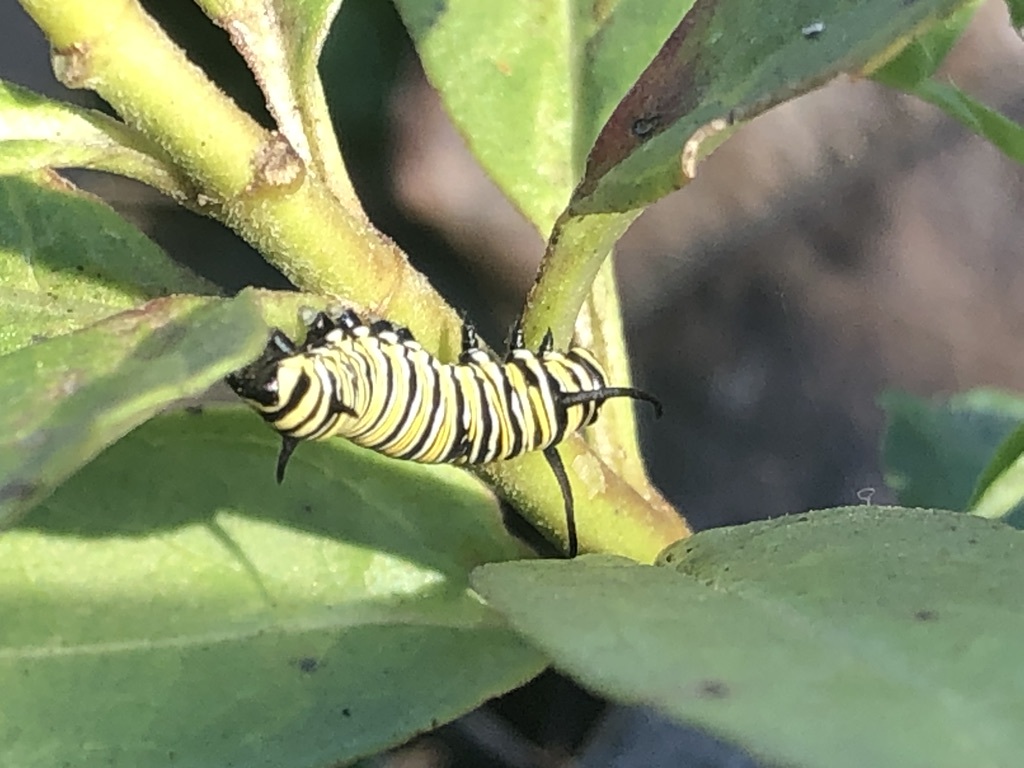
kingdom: Animalia
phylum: Arthropoda
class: Insecta
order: Lepidoptera
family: Nymphalidae
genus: Danaus
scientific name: Danaus plexippus
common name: Monarch
